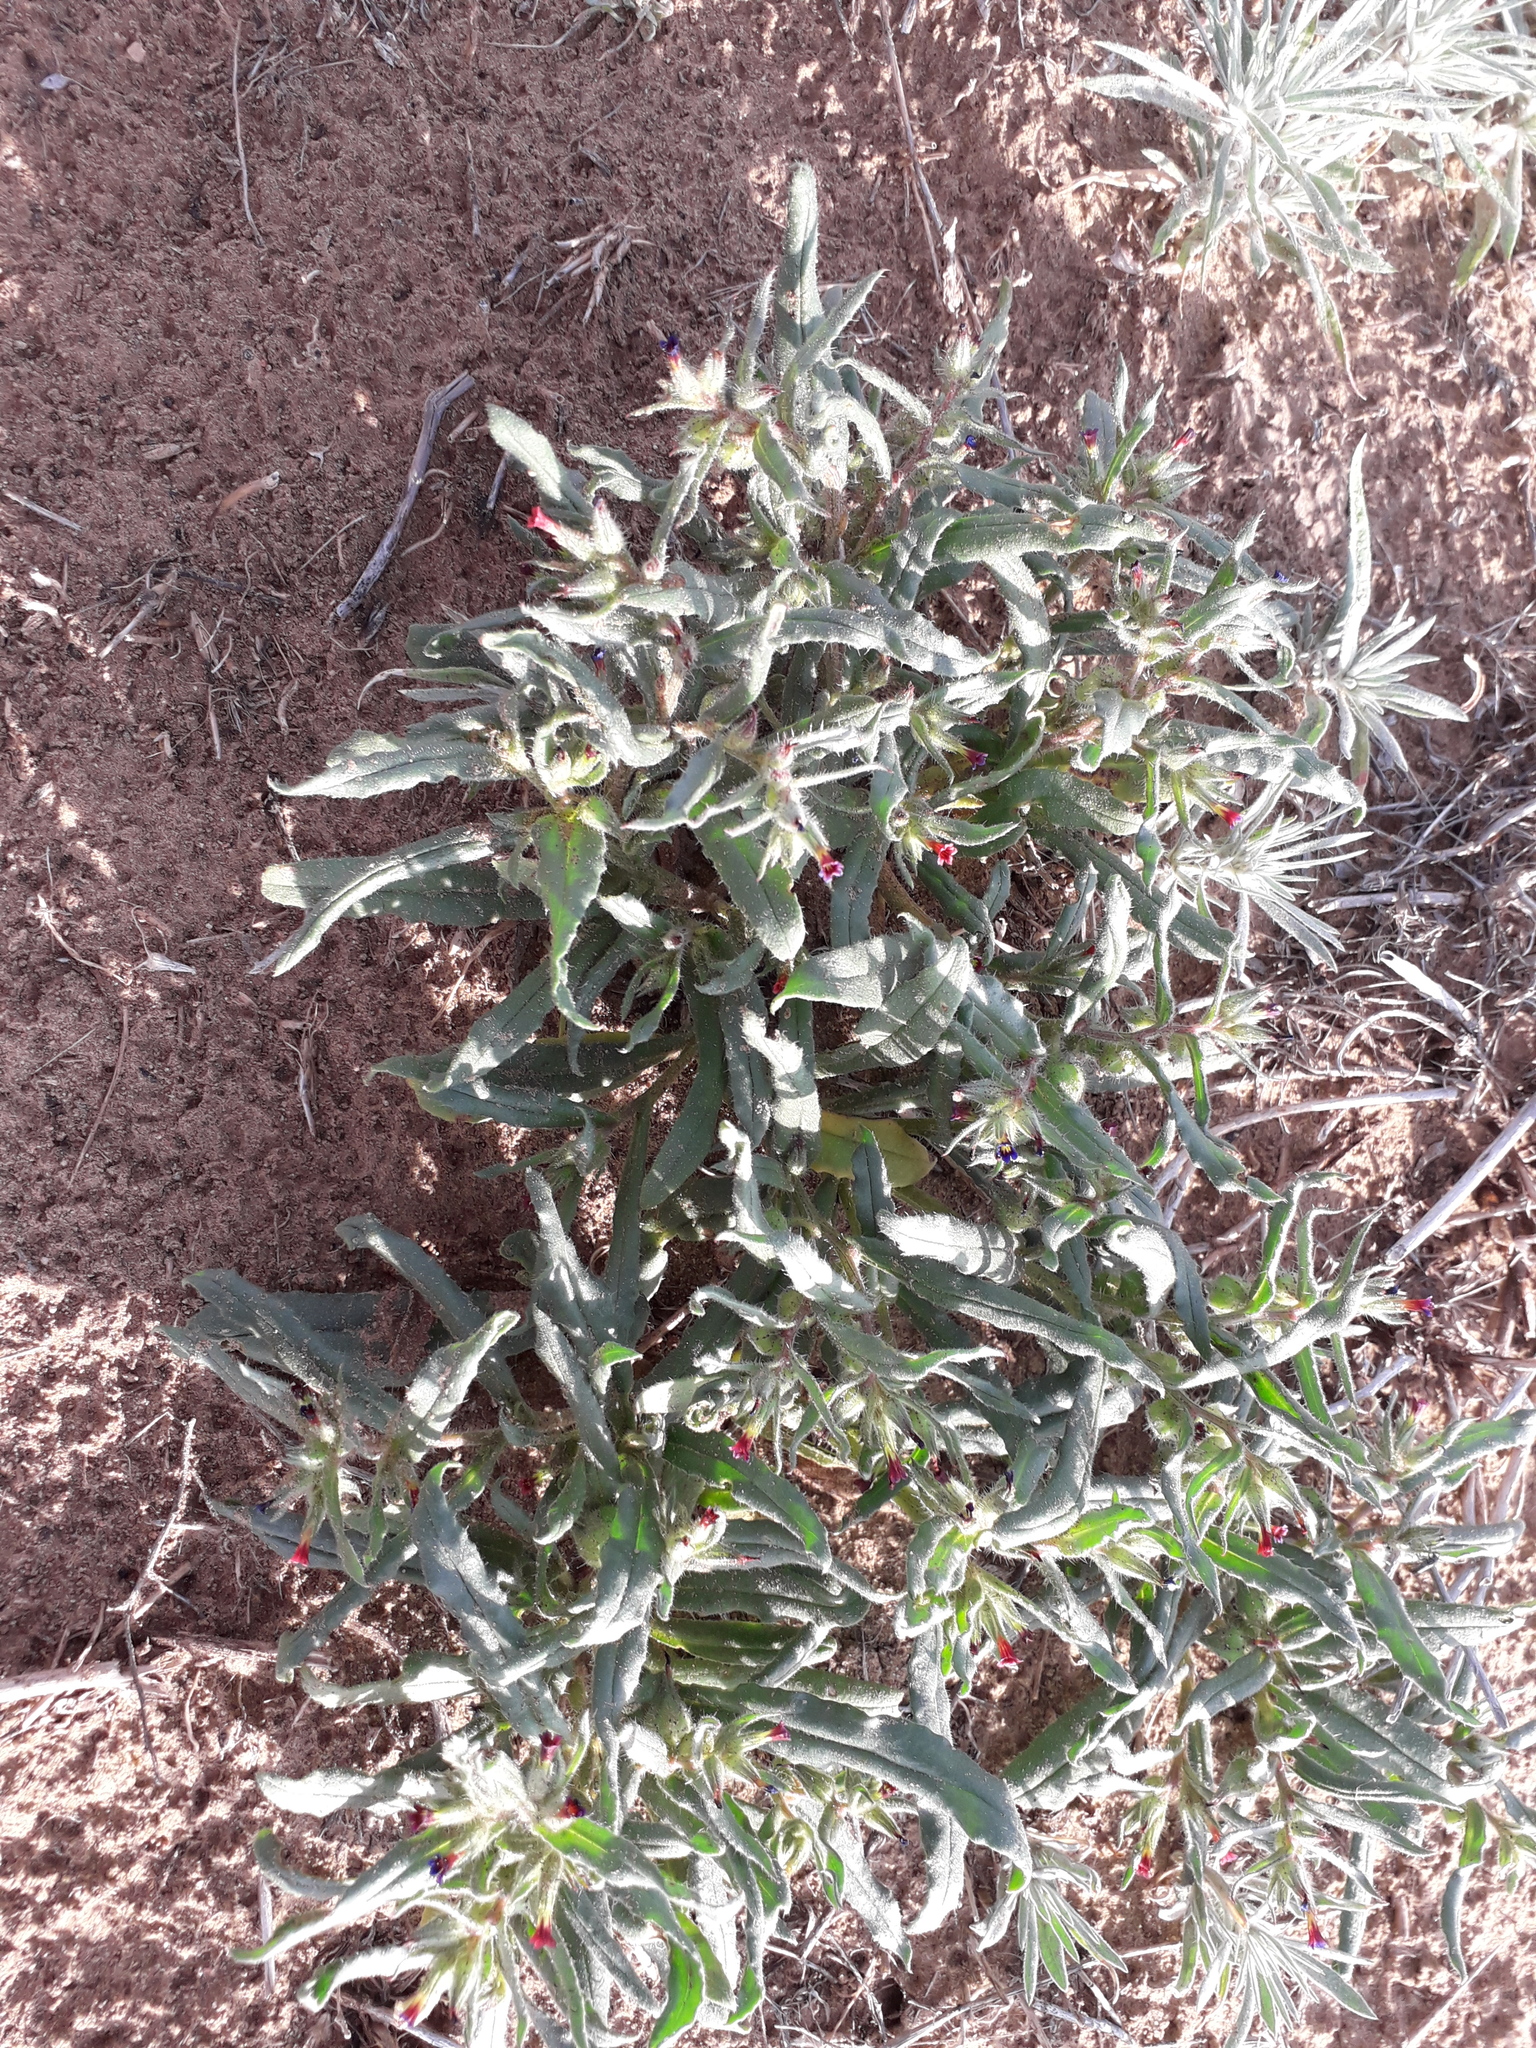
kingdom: Plantae
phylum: Tracheophyta
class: Magnoliopsida
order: Boraginales
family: Boraginaceae
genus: Nonea
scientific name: Nonea caspica
